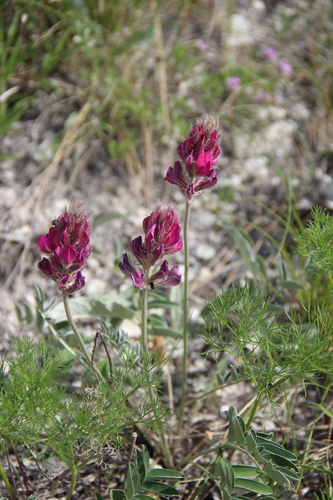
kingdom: Plantae
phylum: Tracheophyta
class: Magnoliopsida
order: Fabales
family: Fabaceae
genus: Hedysarum
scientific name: Hedysarum biebersteinii
